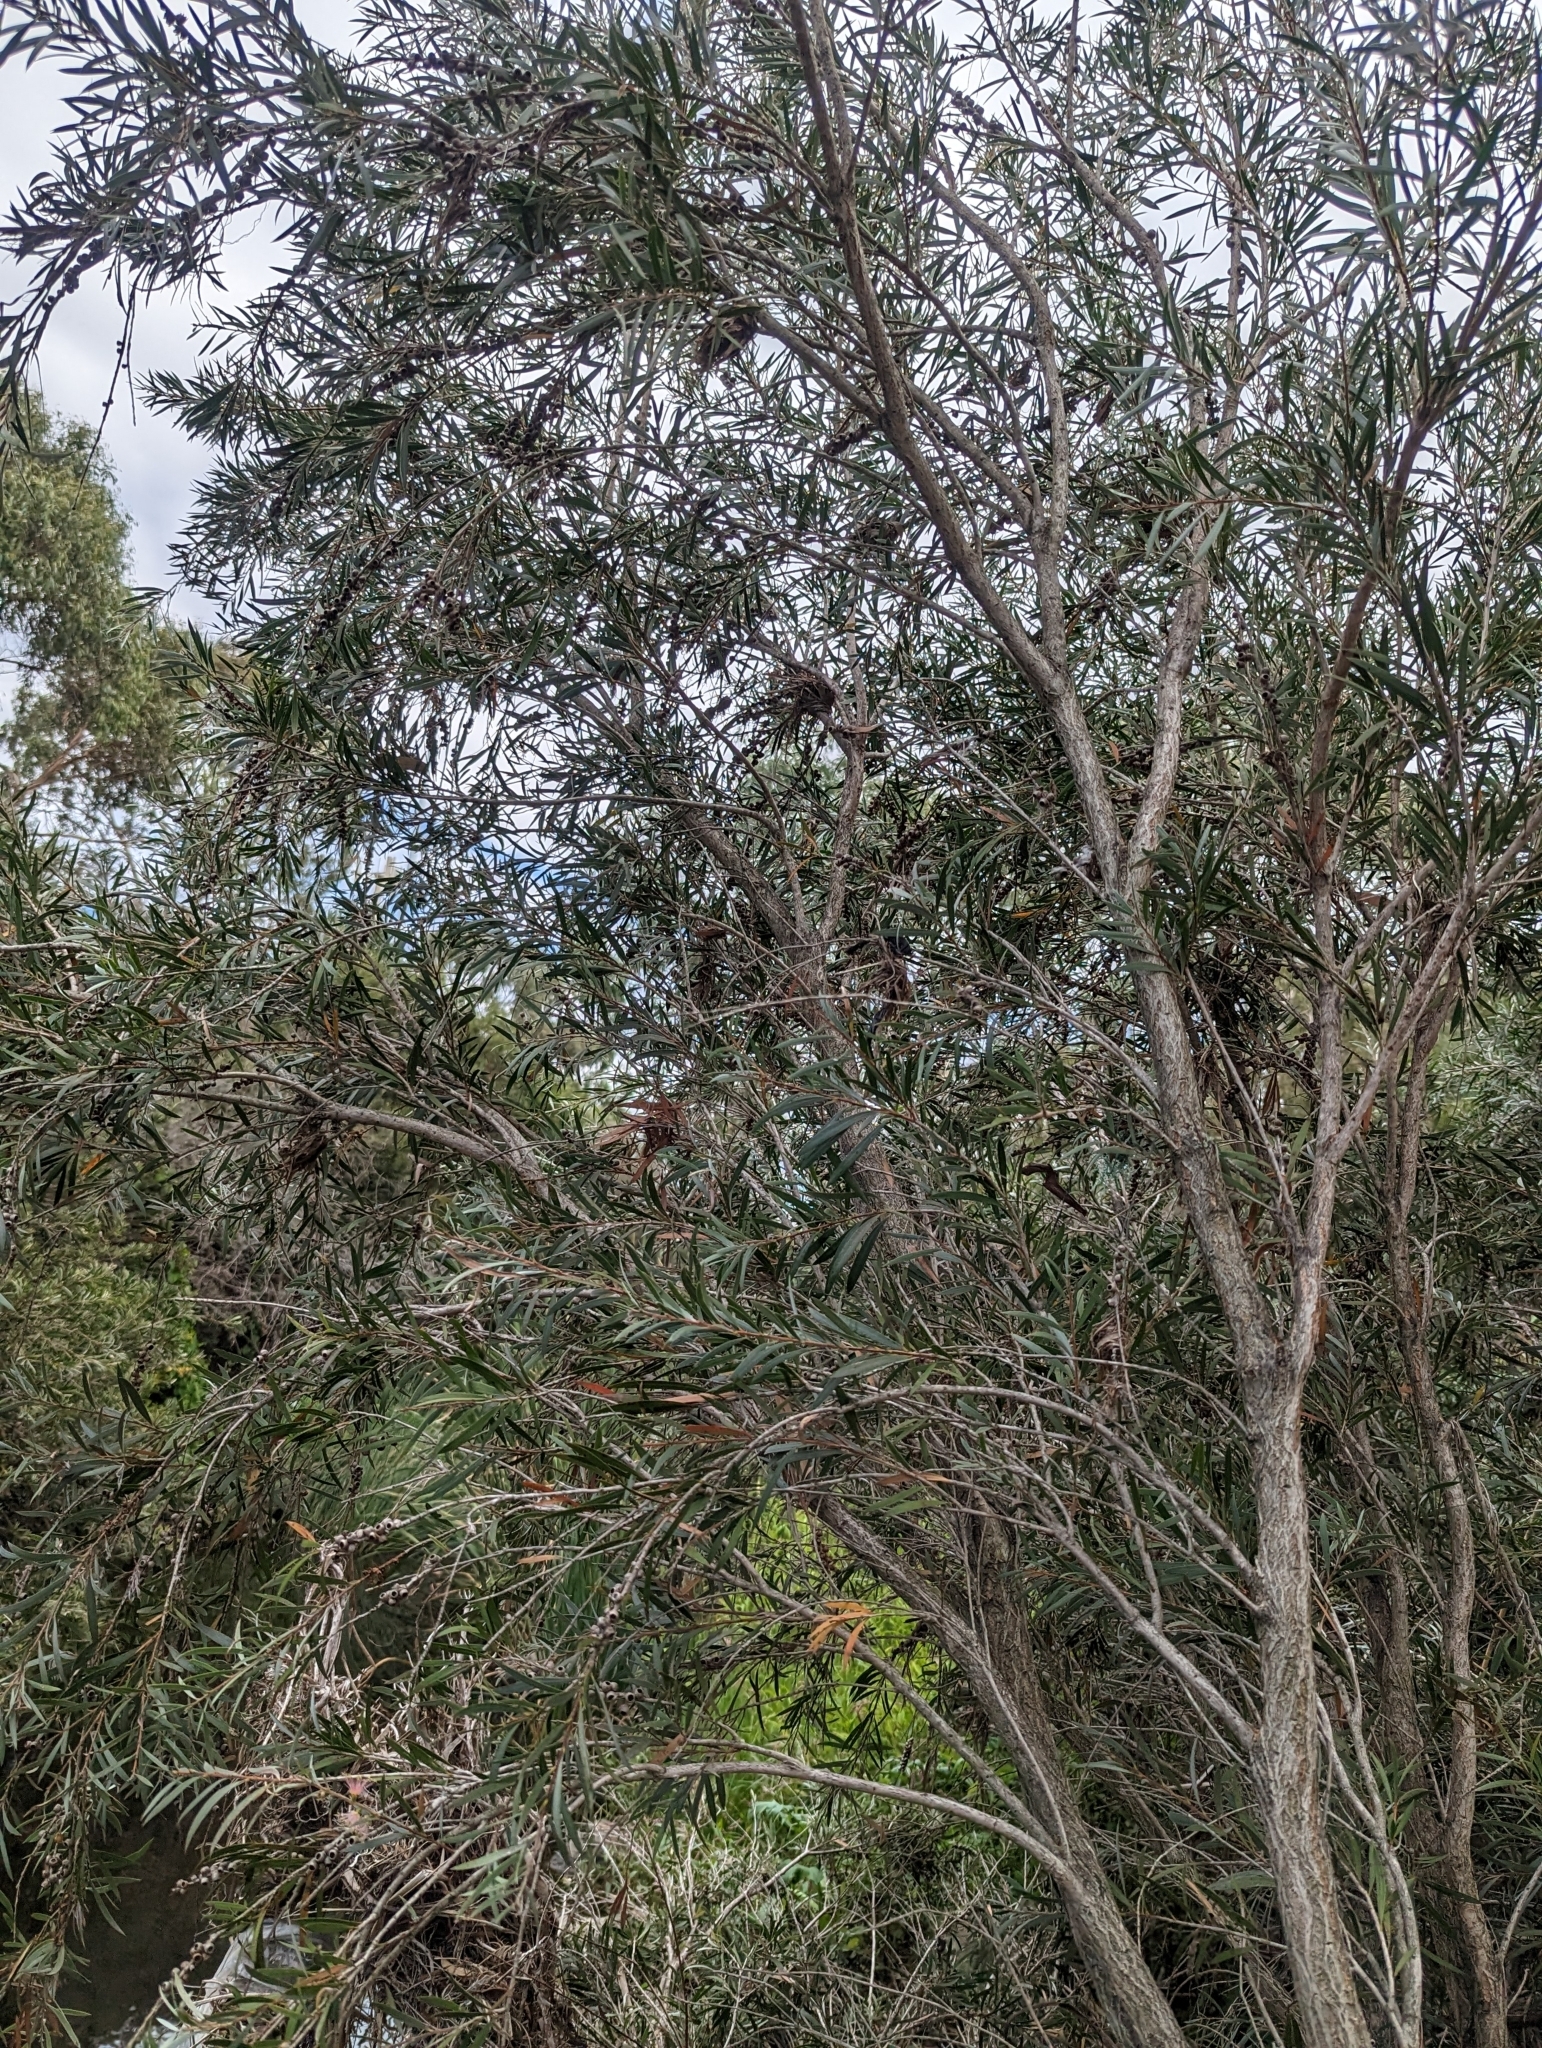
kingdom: Plantae
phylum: Tracheophyta
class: Magnoliopsida
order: Myrtales
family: Myrtaceae
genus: Callistemon
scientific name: Callistemon paludosus
